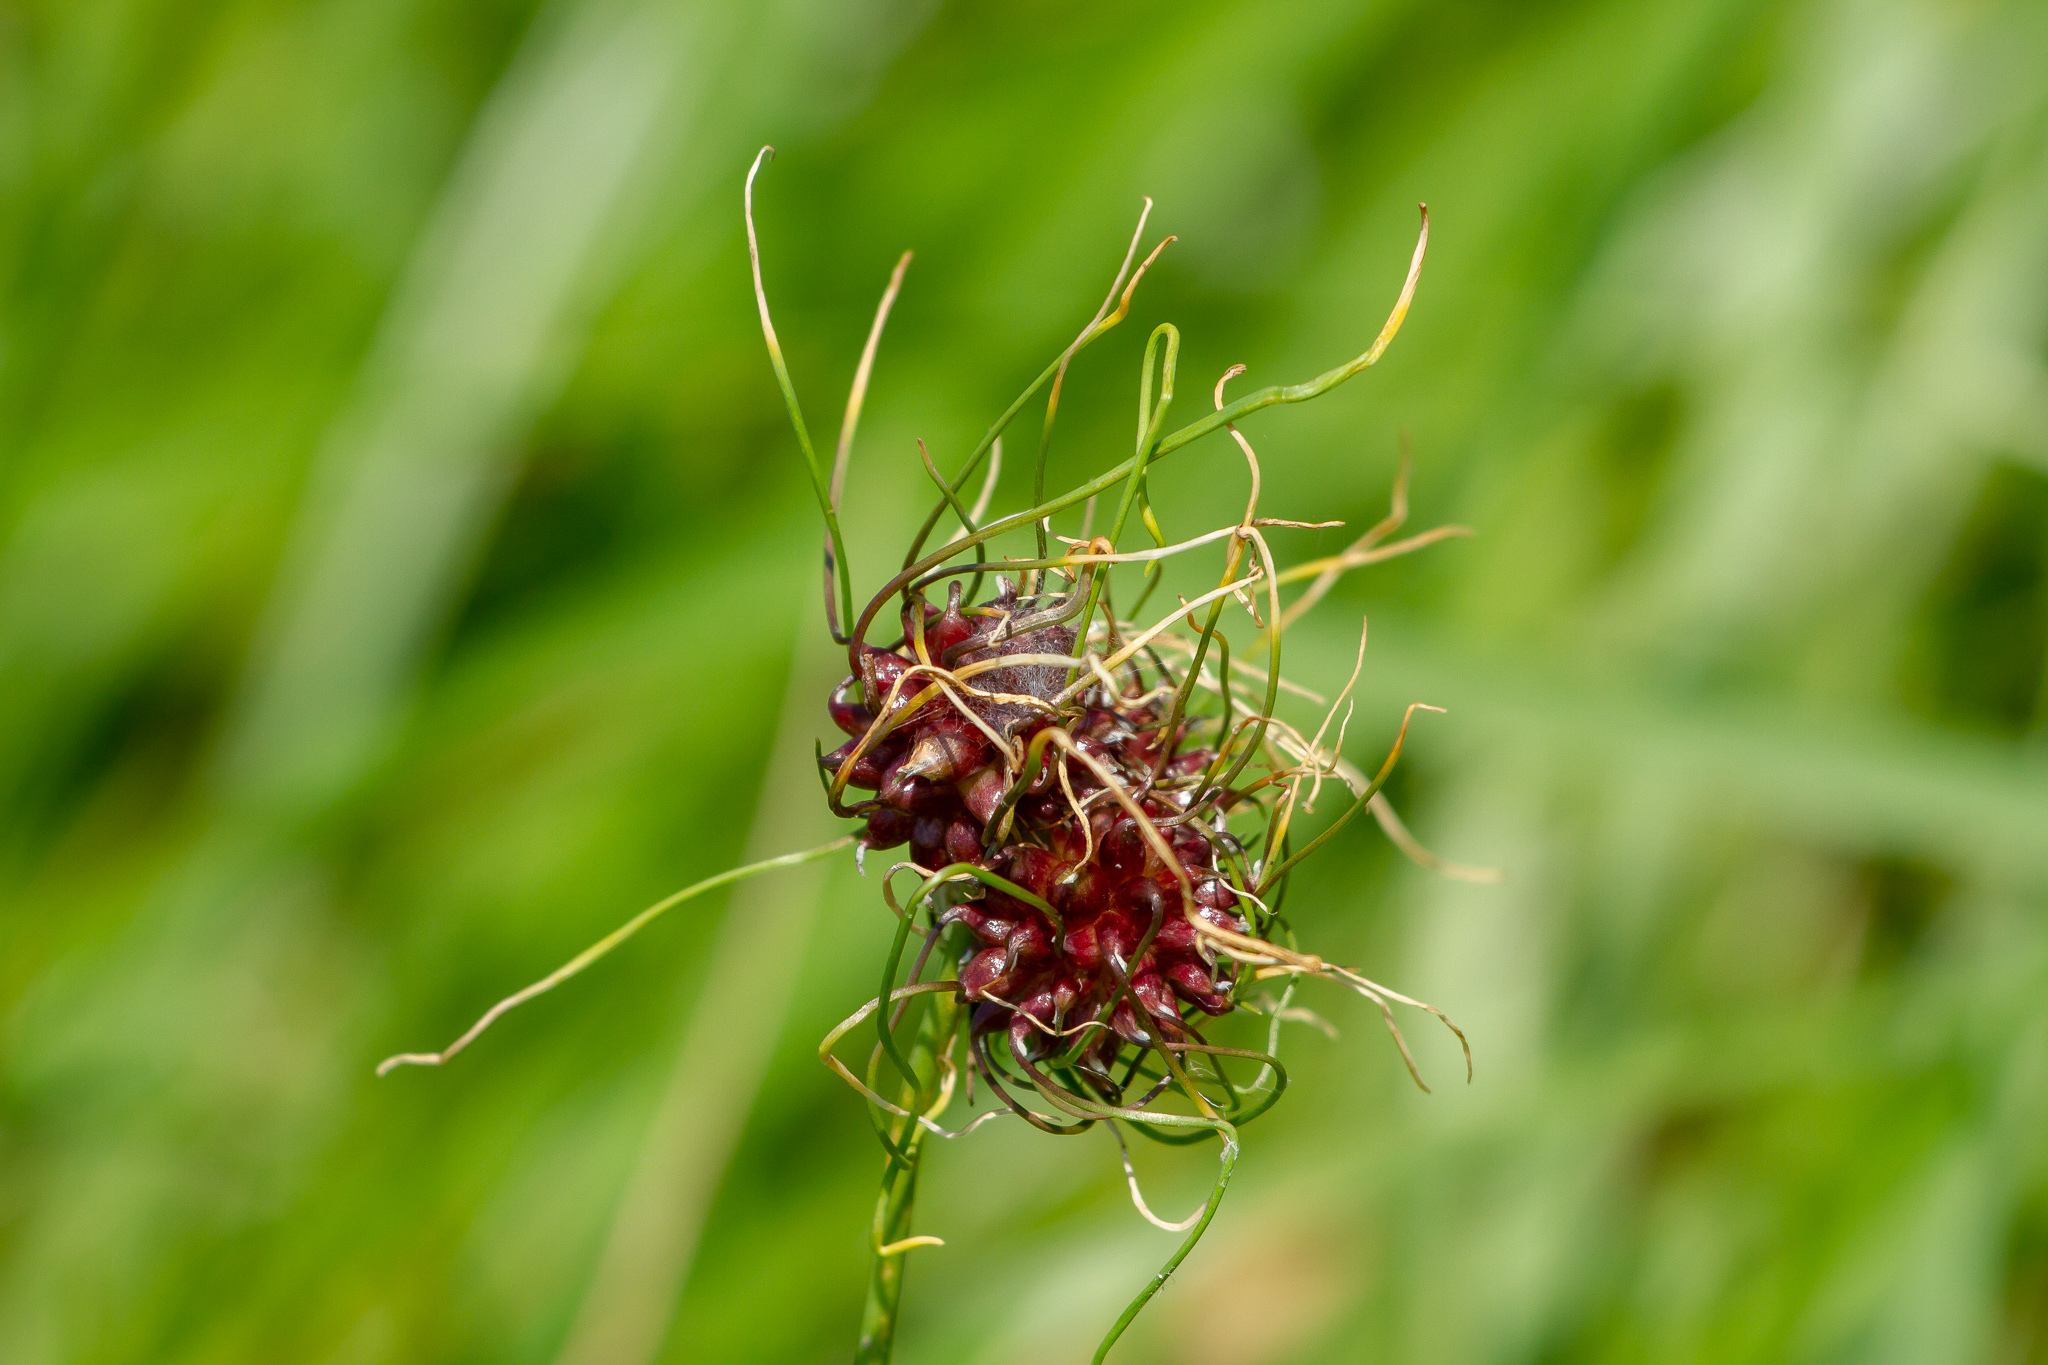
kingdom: Plantae
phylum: Tracheophyta
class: Liliopsida
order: Asparagales
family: Amaryllidaceae
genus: Allium
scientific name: Allium vineale
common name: Crow garlic
